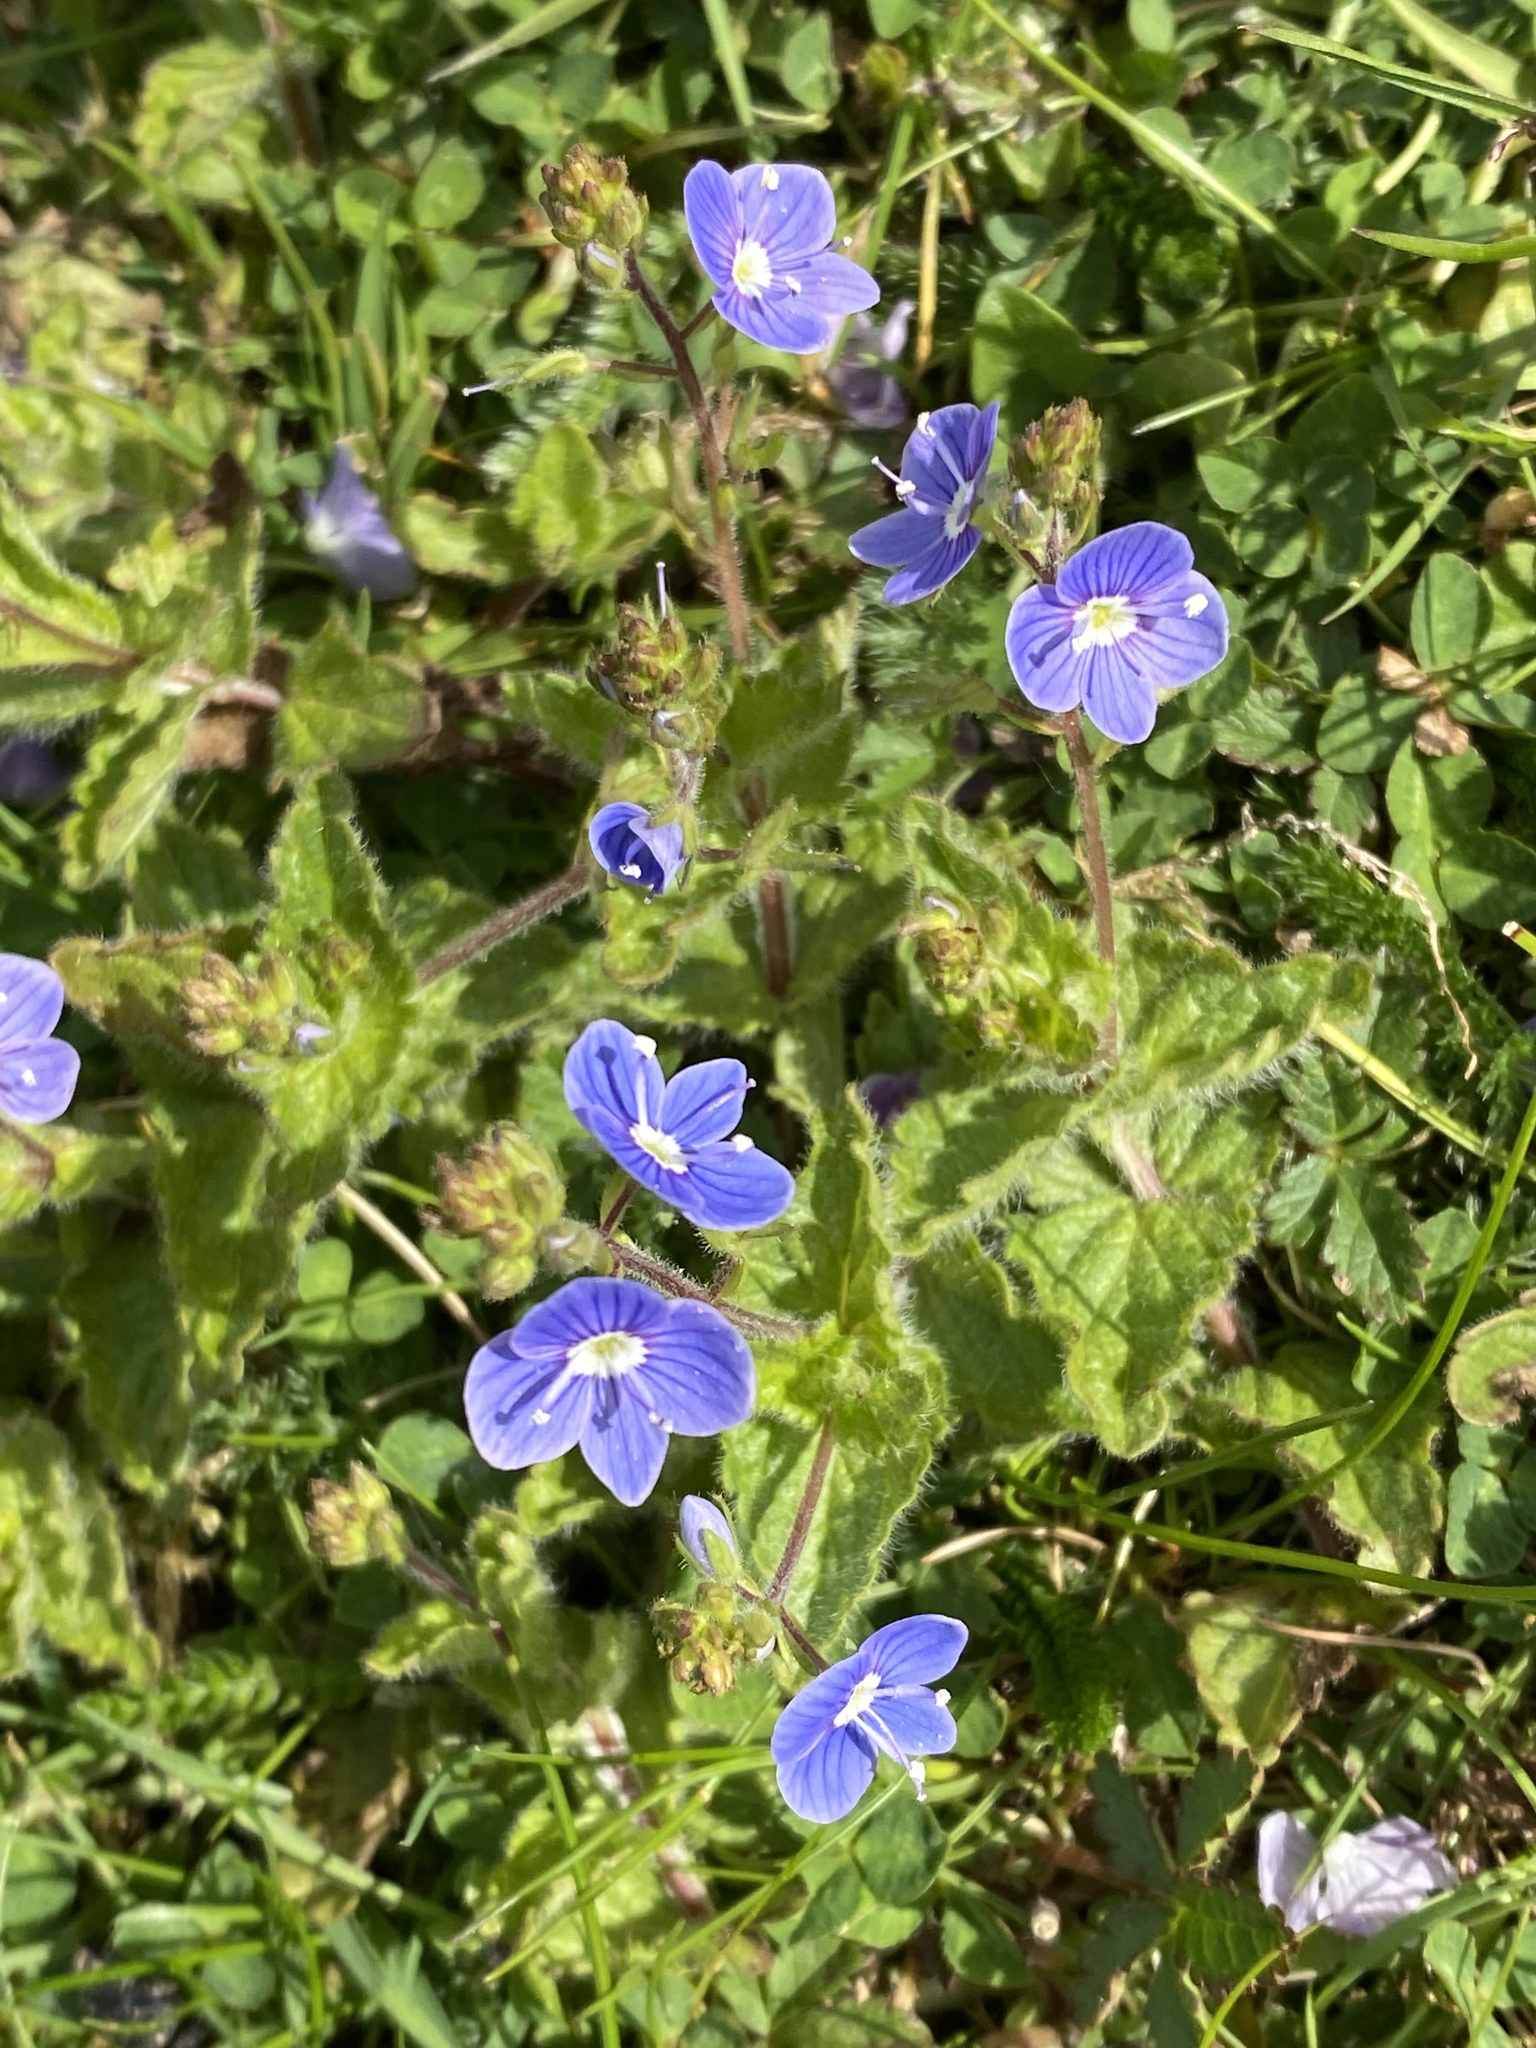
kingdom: Plantae
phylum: Tracheophyta
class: Magnoliopsida
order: Lamiales
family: Plantaginaceae
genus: Veronica
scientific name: Veronica chamaedrys
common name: Germander speedwell
